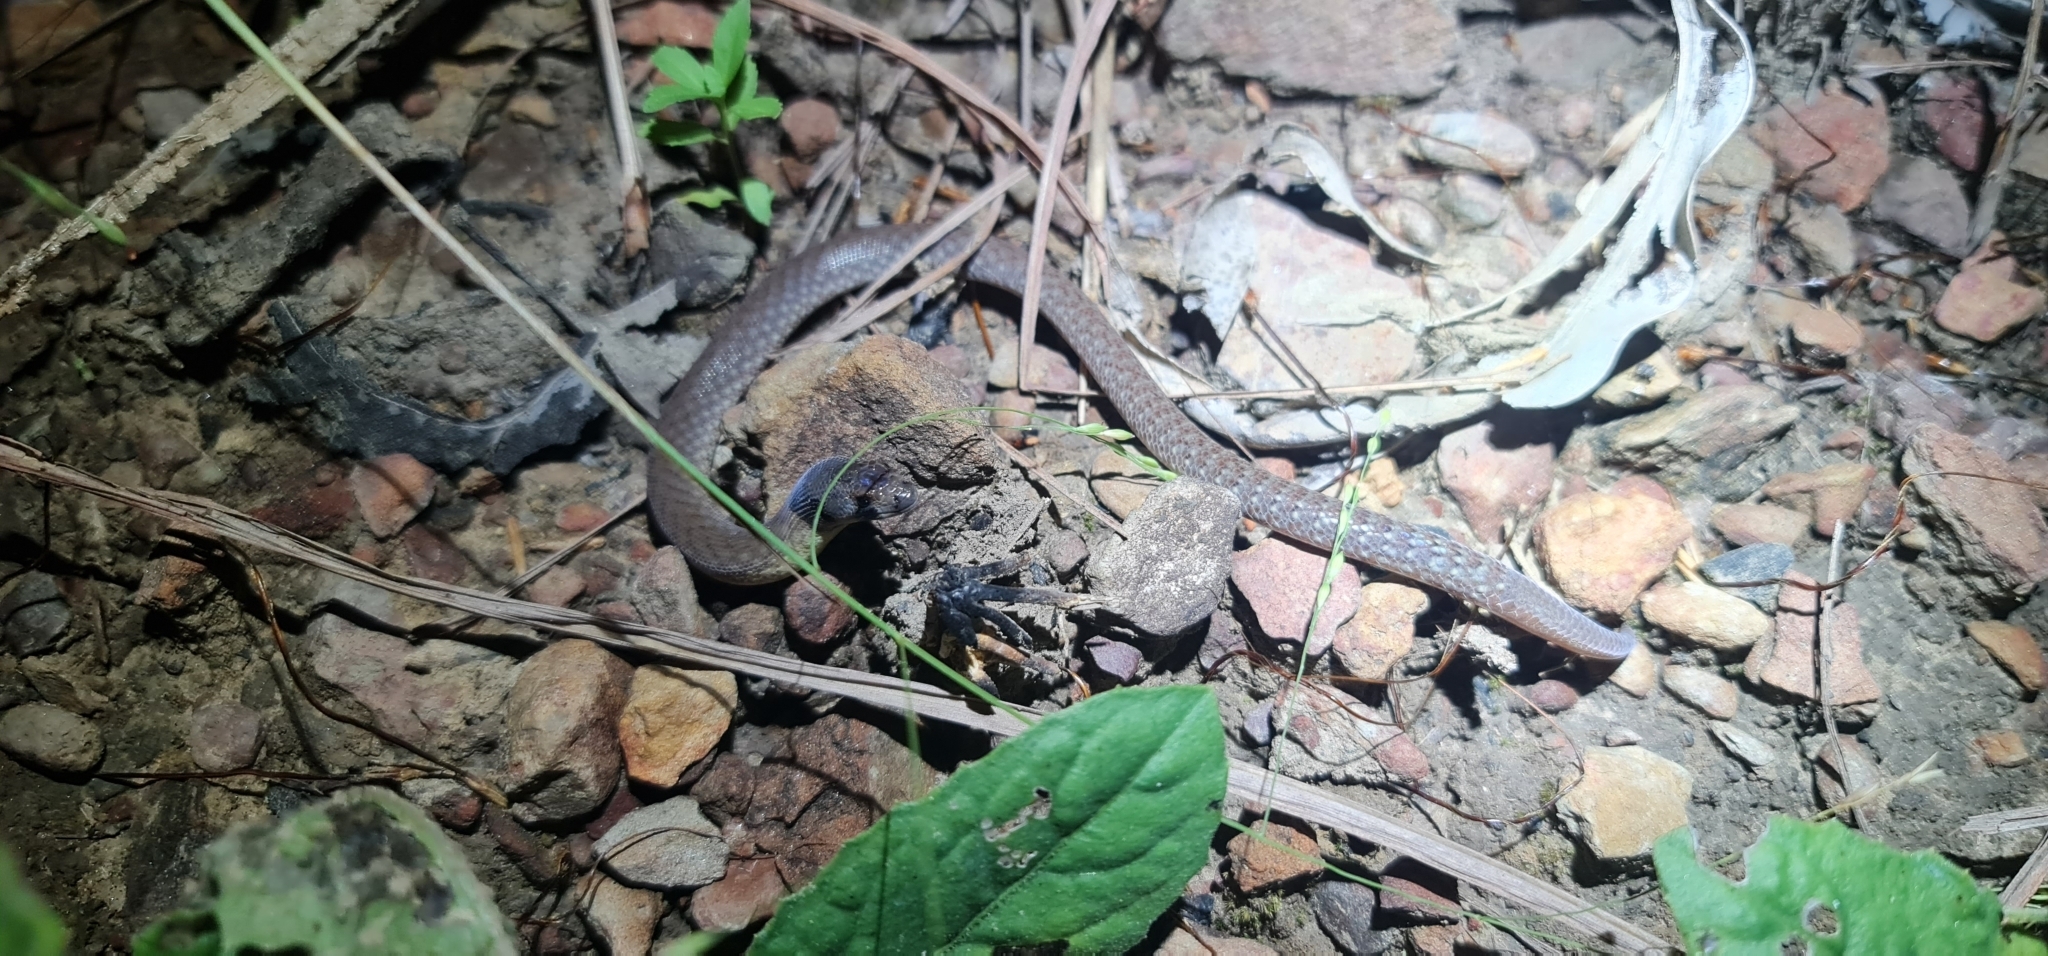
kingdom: Animalia
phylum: Chordata
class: Squamata
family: Pygopodidae
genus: Pygopus
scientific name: Pygopus steelescotti
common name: Northern hooded scaly-foot
